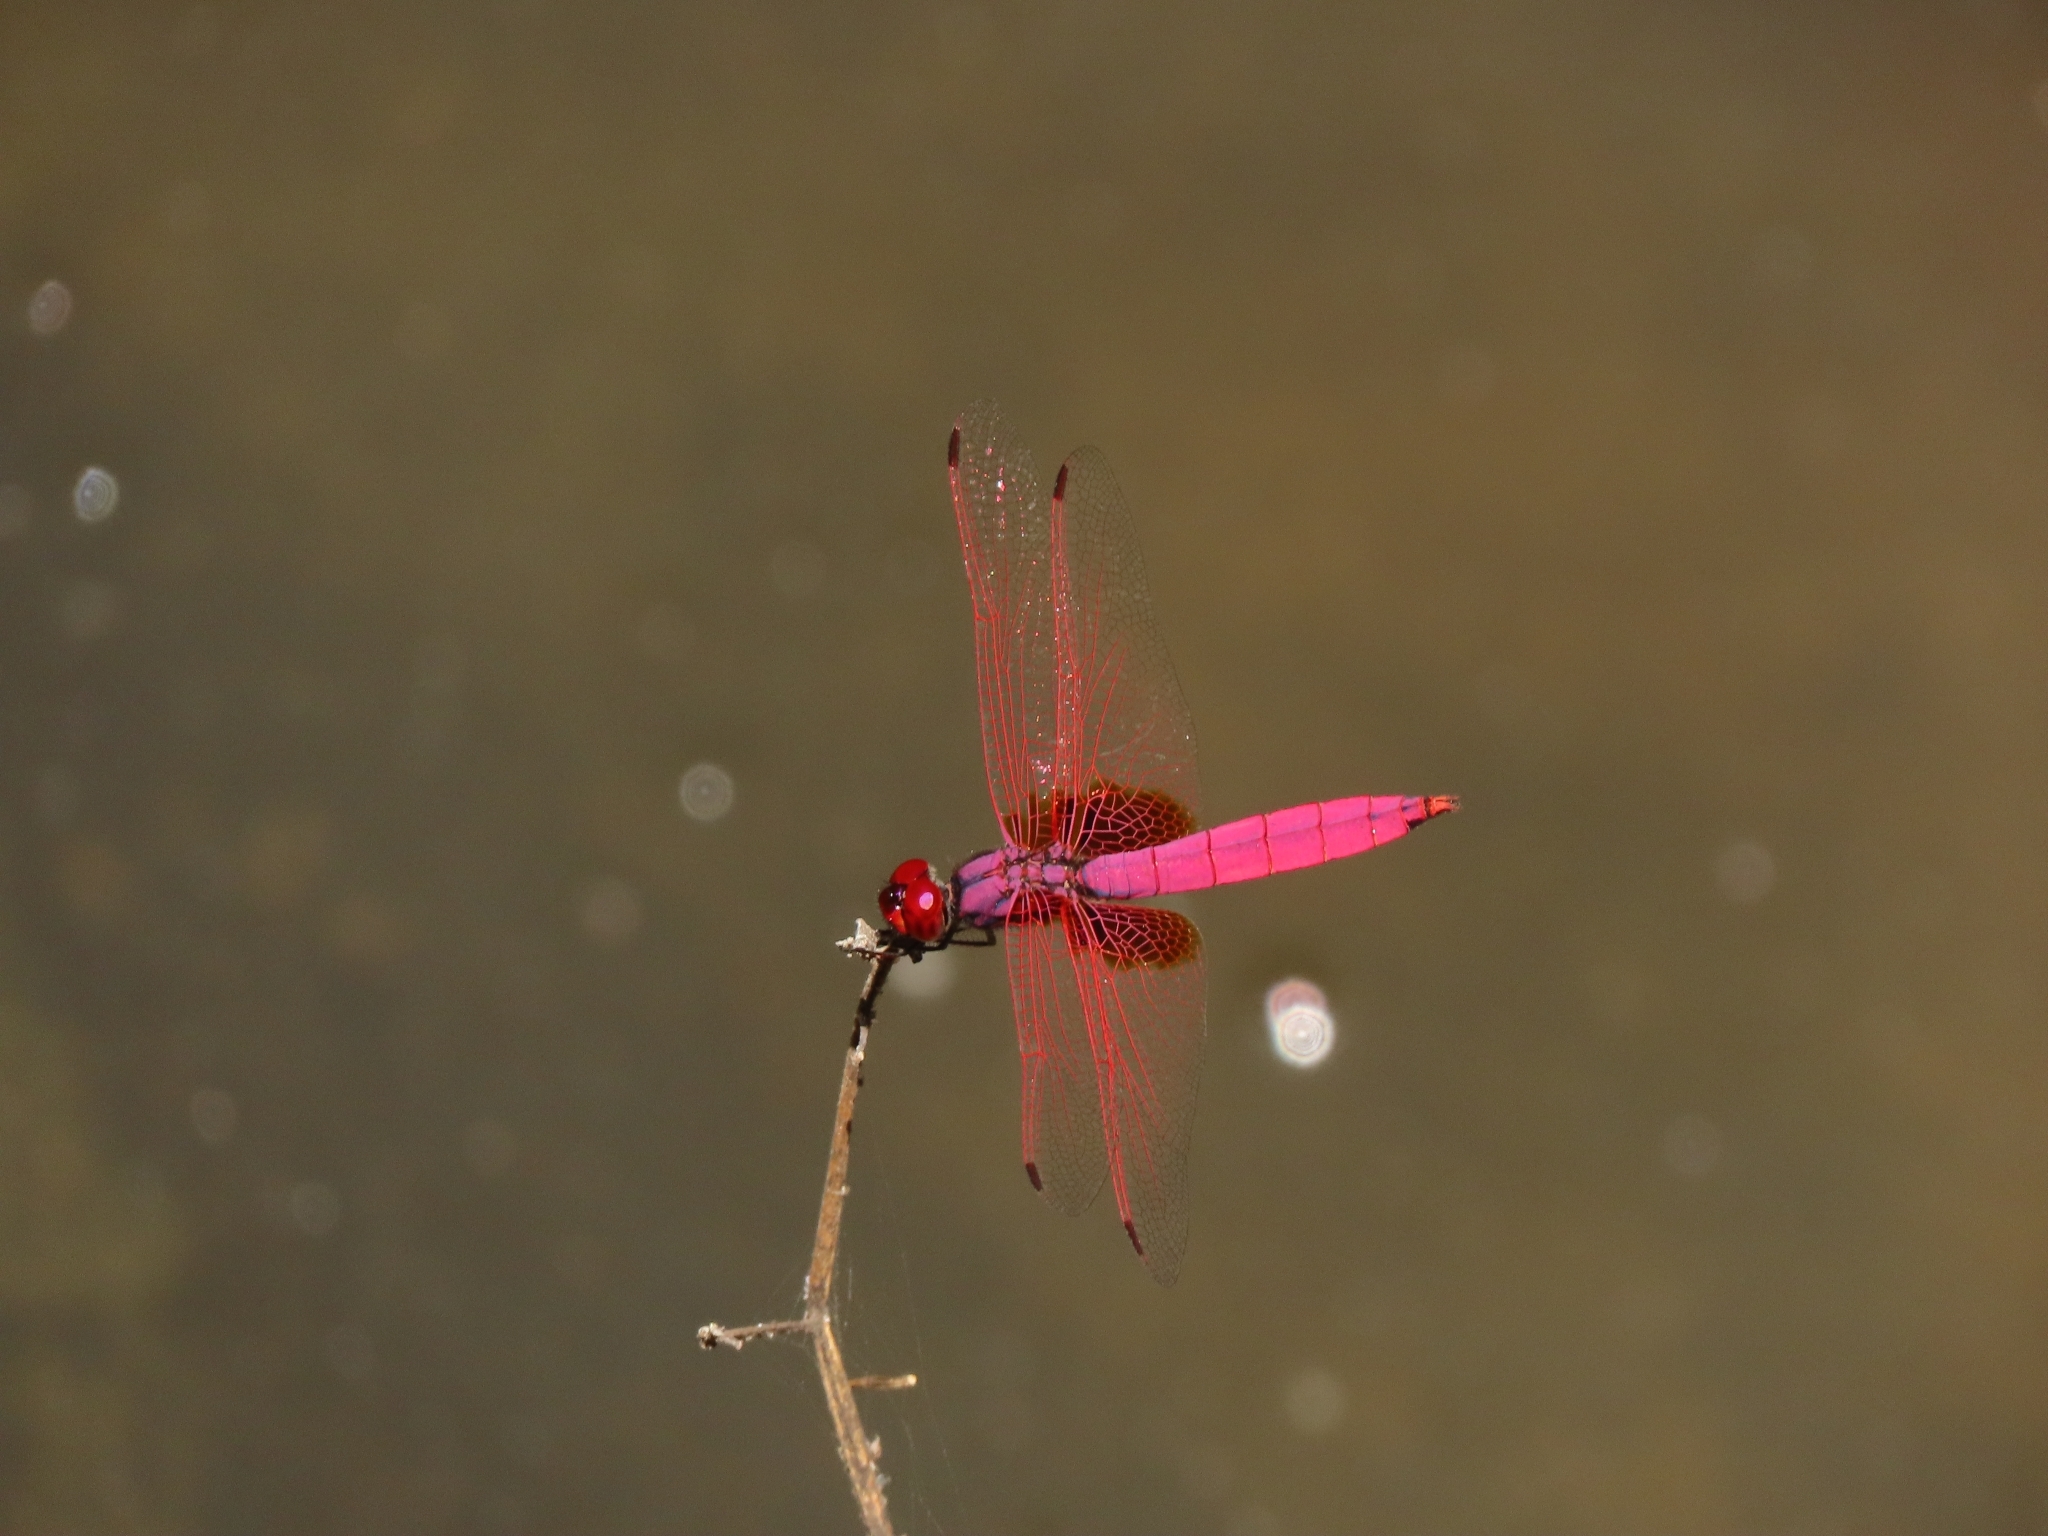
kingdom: Animalia
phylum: Arthropoda
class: Insecta
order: Odonata
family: Libellulidae
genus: Trithemis
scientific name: Trithemis aurora
